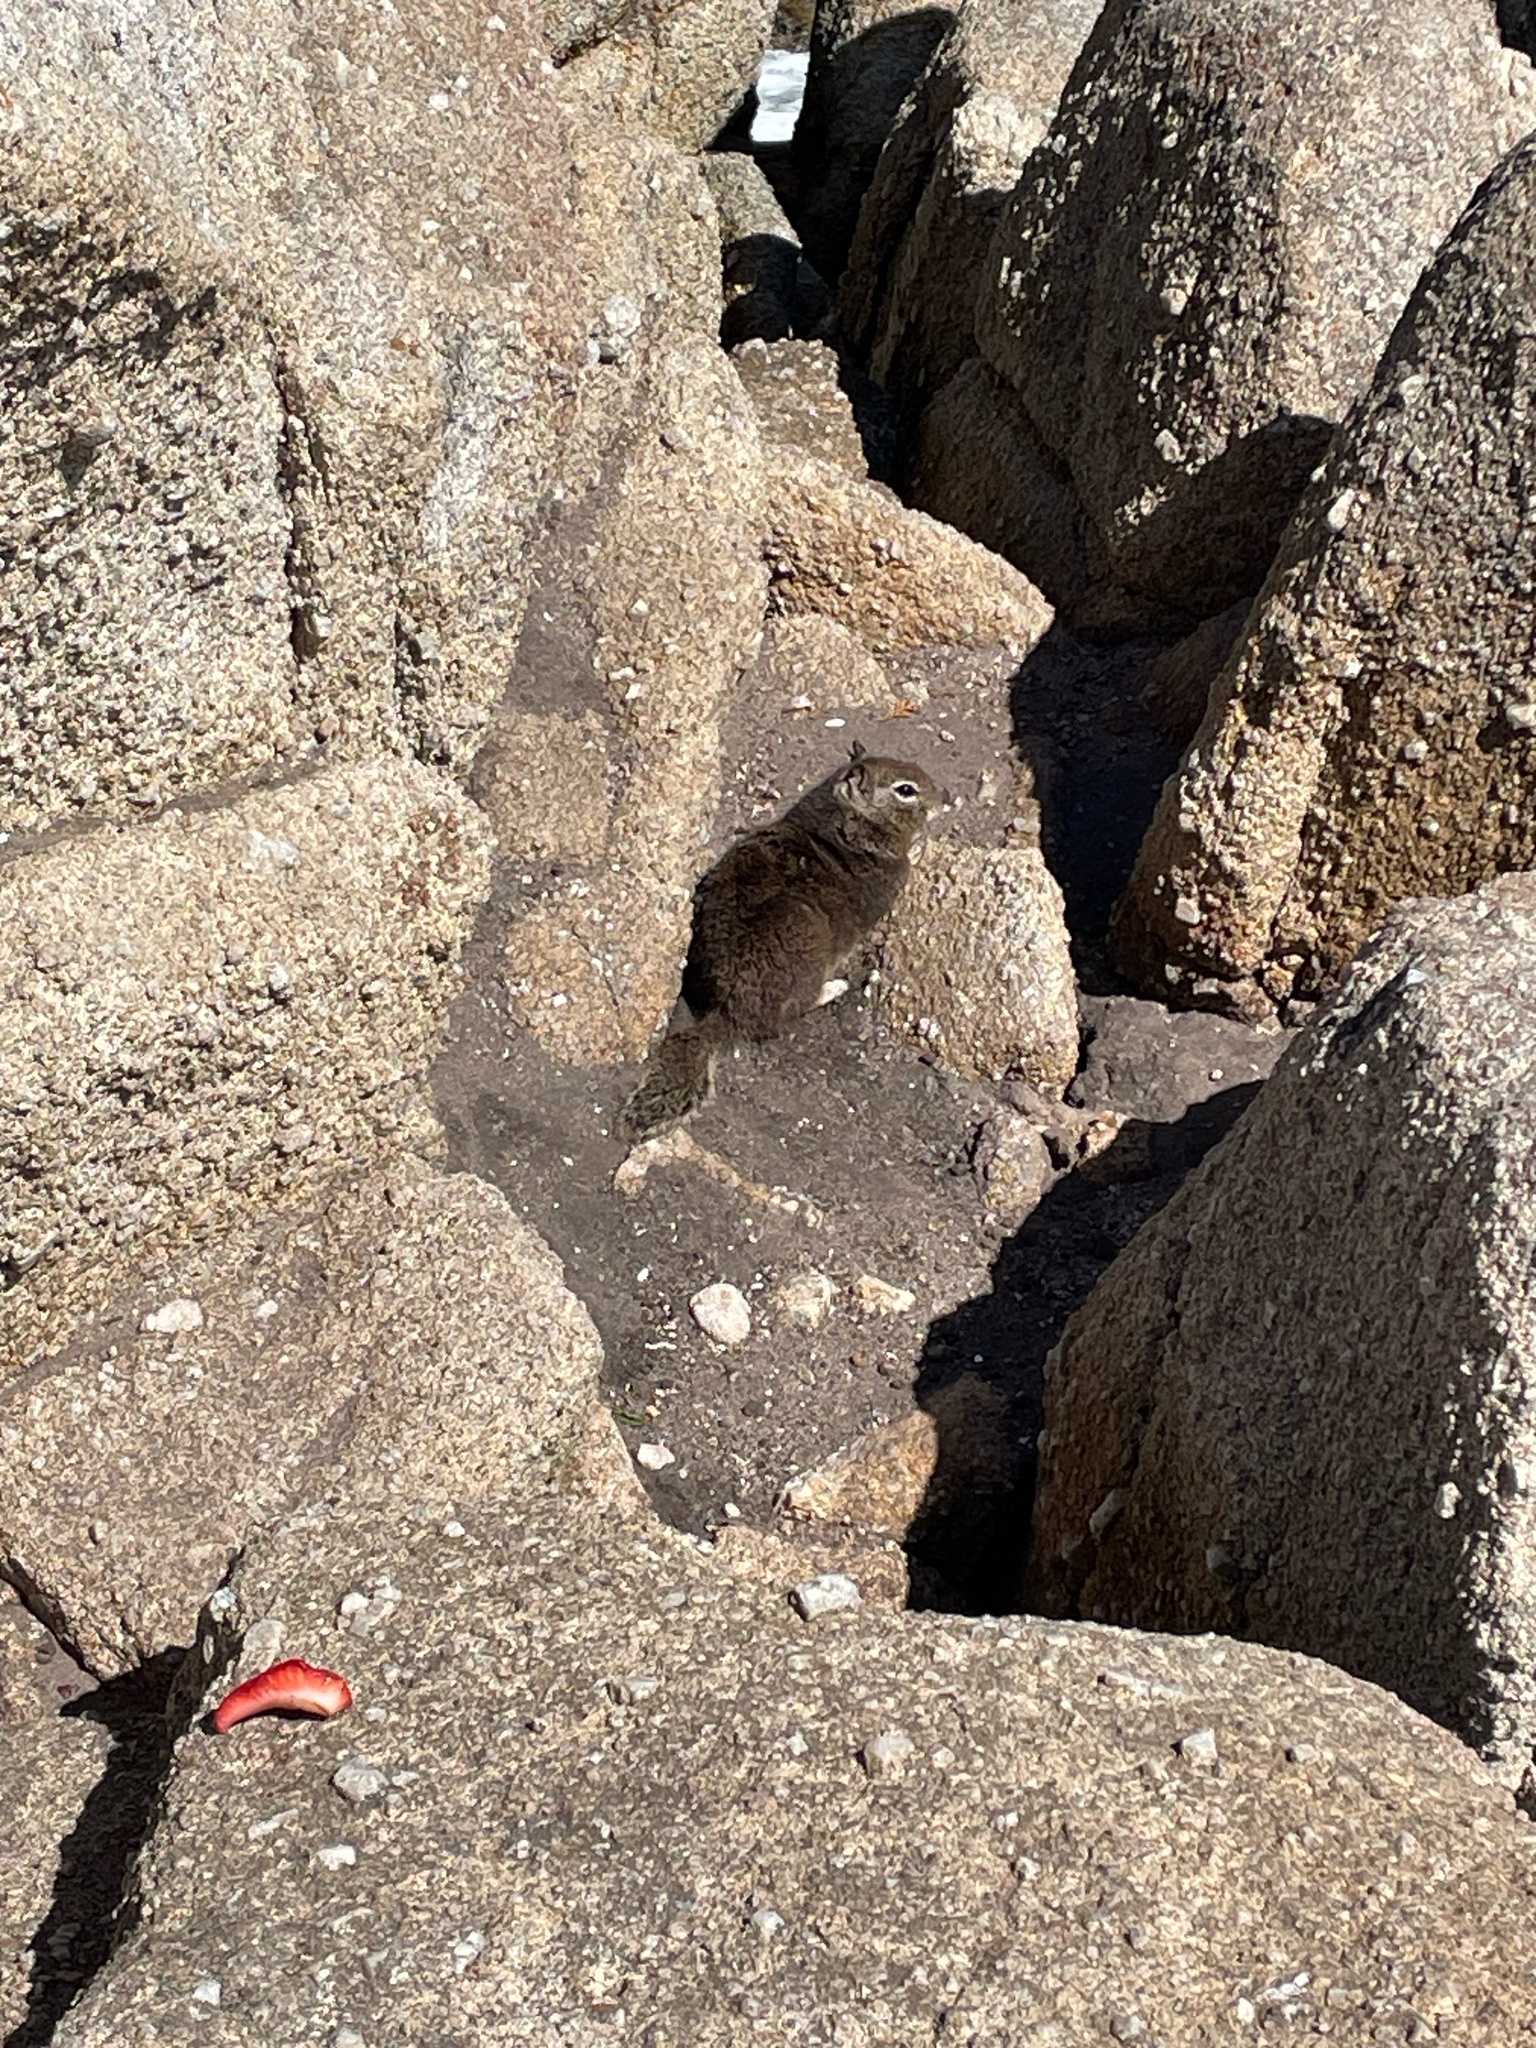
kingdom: Animalia
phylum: Chordata
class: Mammalia
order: Rodentia
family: Sciuridae
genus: Otospermophilus
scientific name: Otospermophilus beecheyi
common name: California ground squirrel
